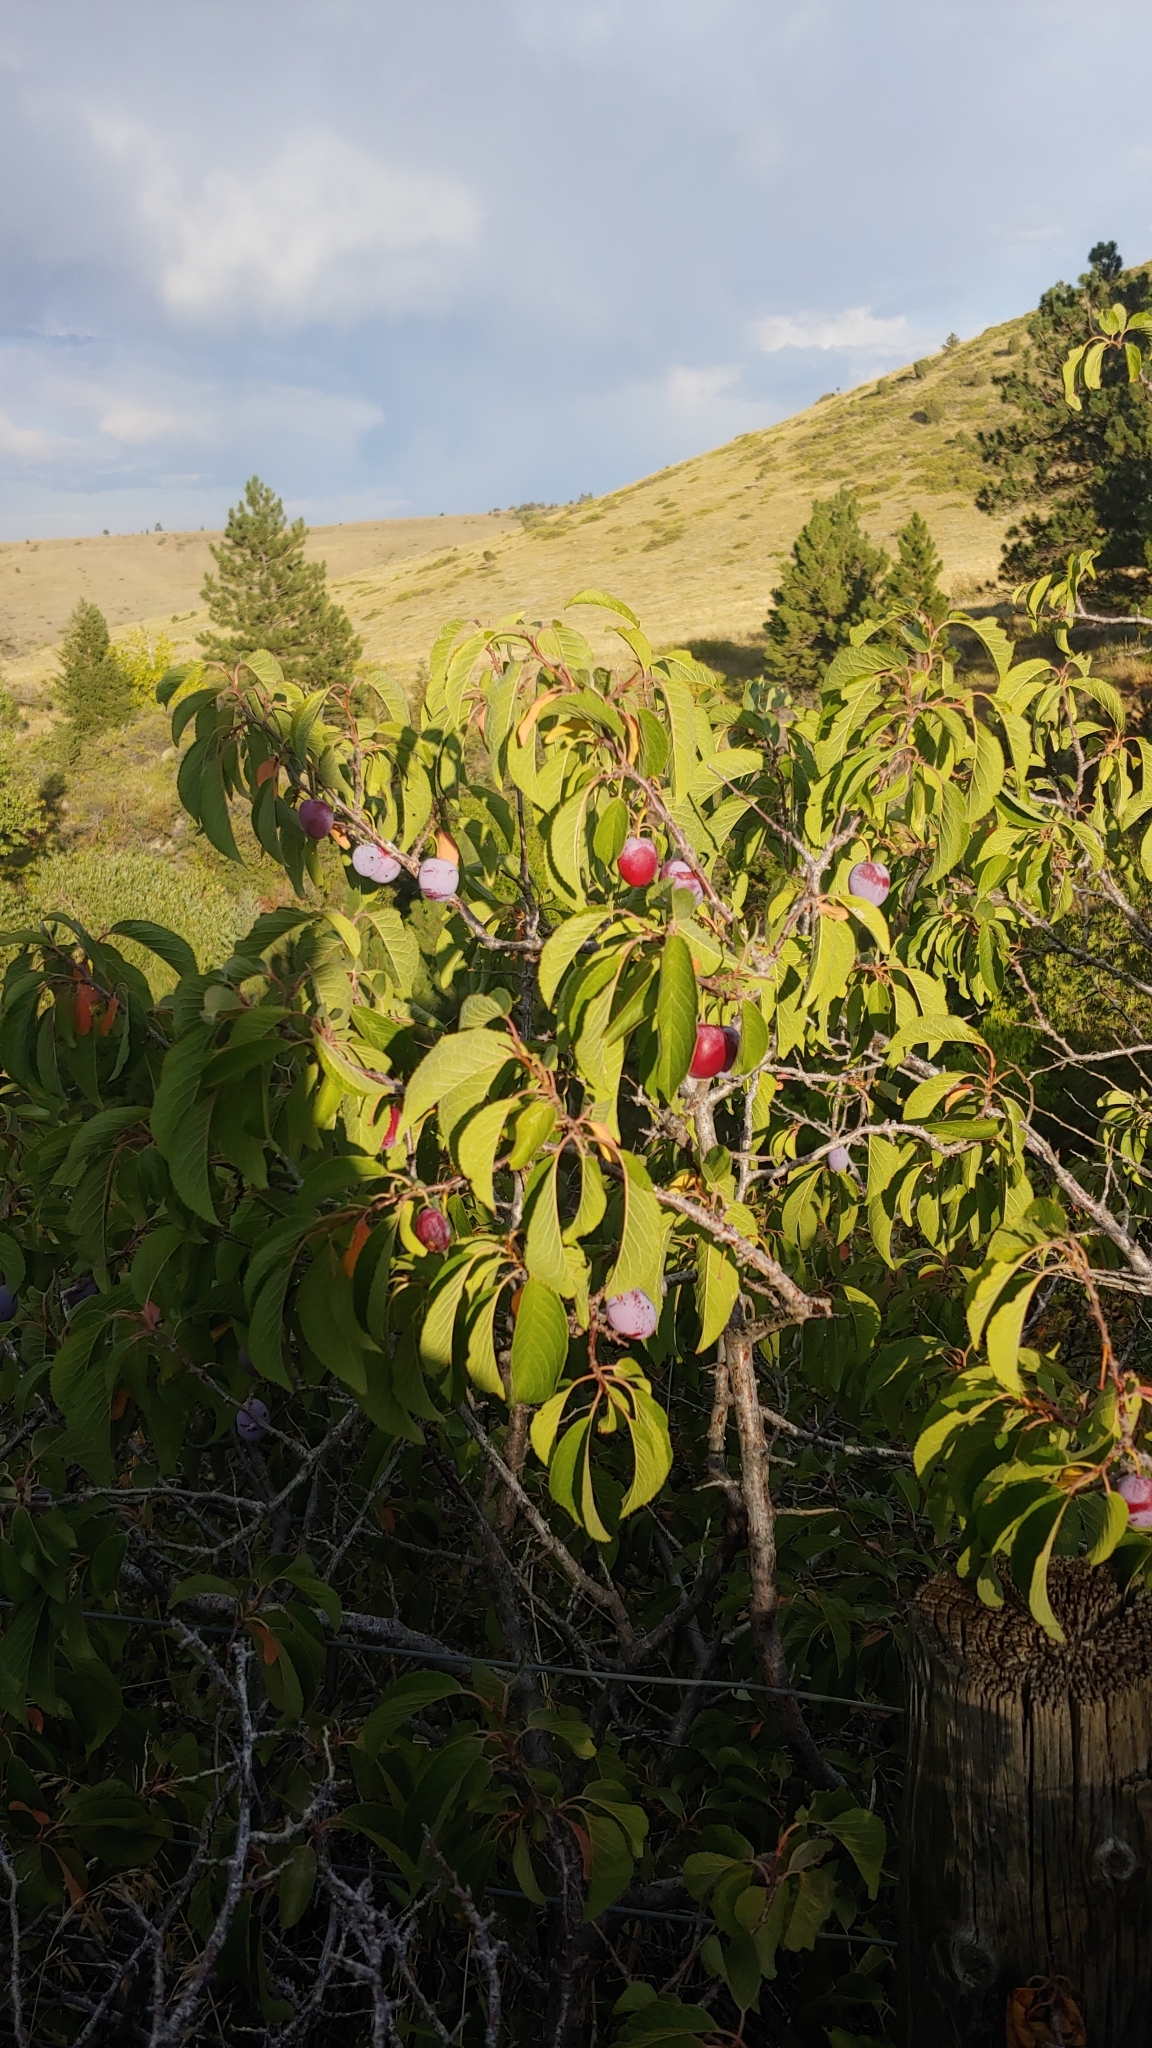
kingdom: Plantae
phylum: Tracheophyta
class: Magnoliopsida
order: Rosales
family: Rosaceae
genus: Prunus
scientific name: Prunus americana
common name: American plum
